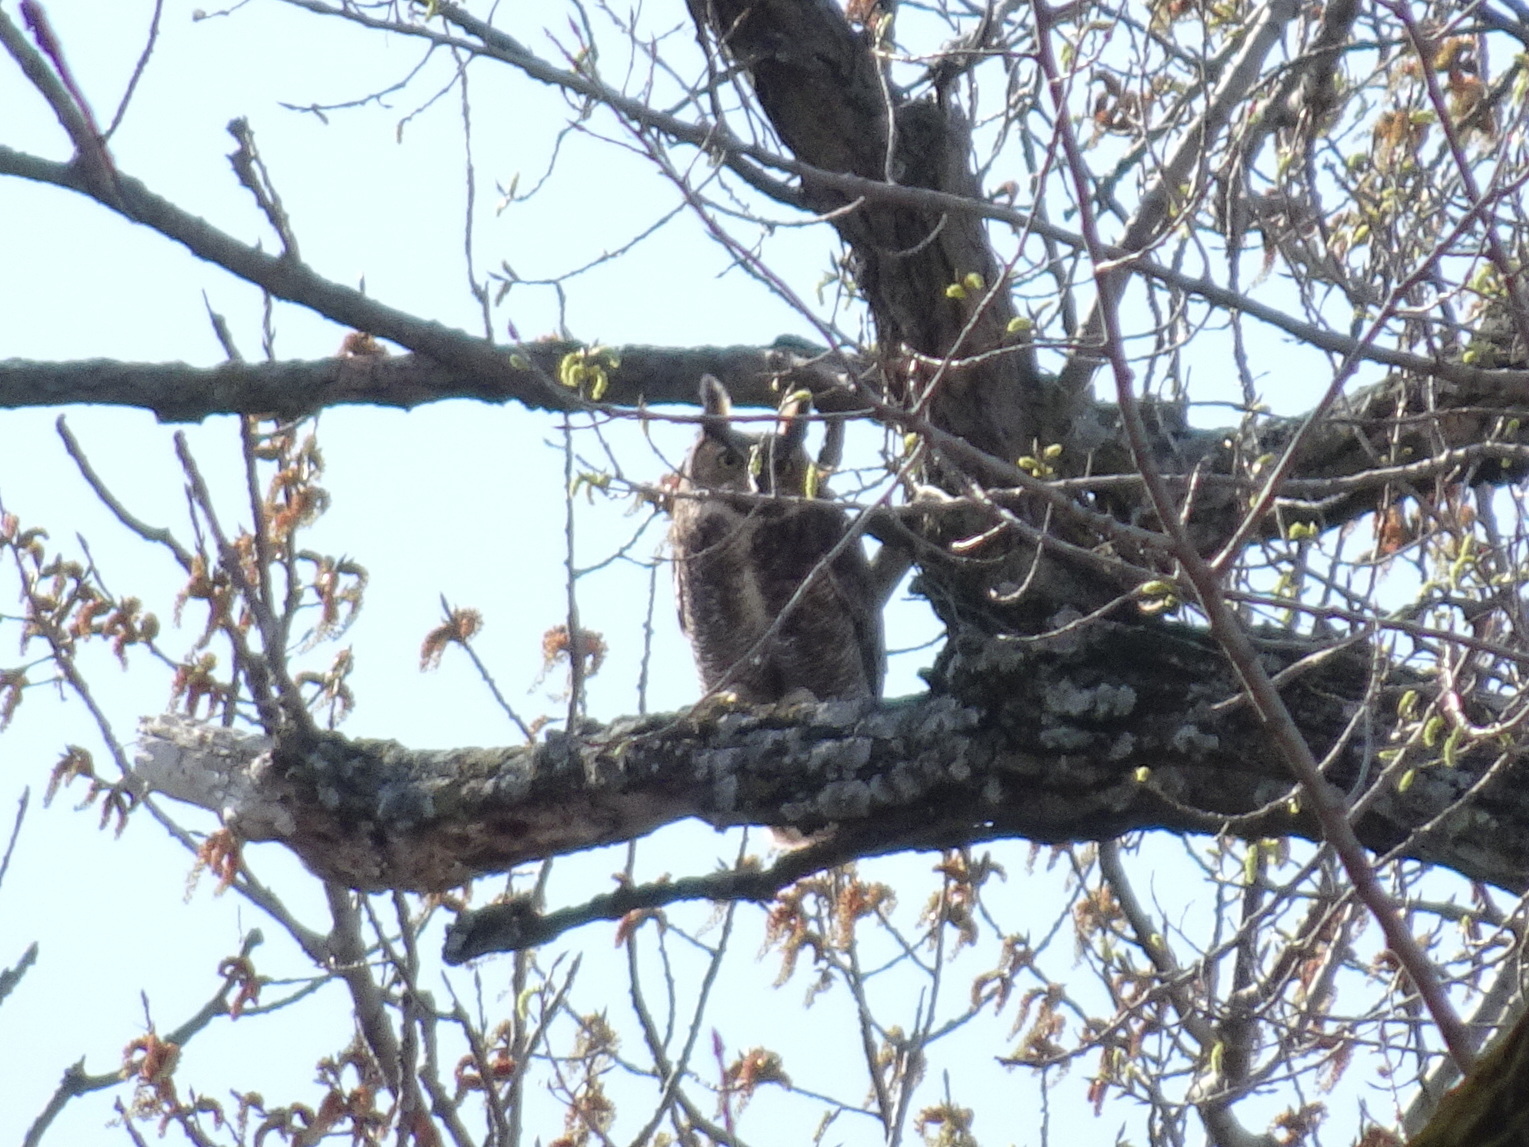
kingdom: Animalia
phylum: Chordata
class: Aves
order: Strigiformes
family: Strigidae
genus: Bubo
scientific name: Bubo virginianus
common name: Great horned owl
